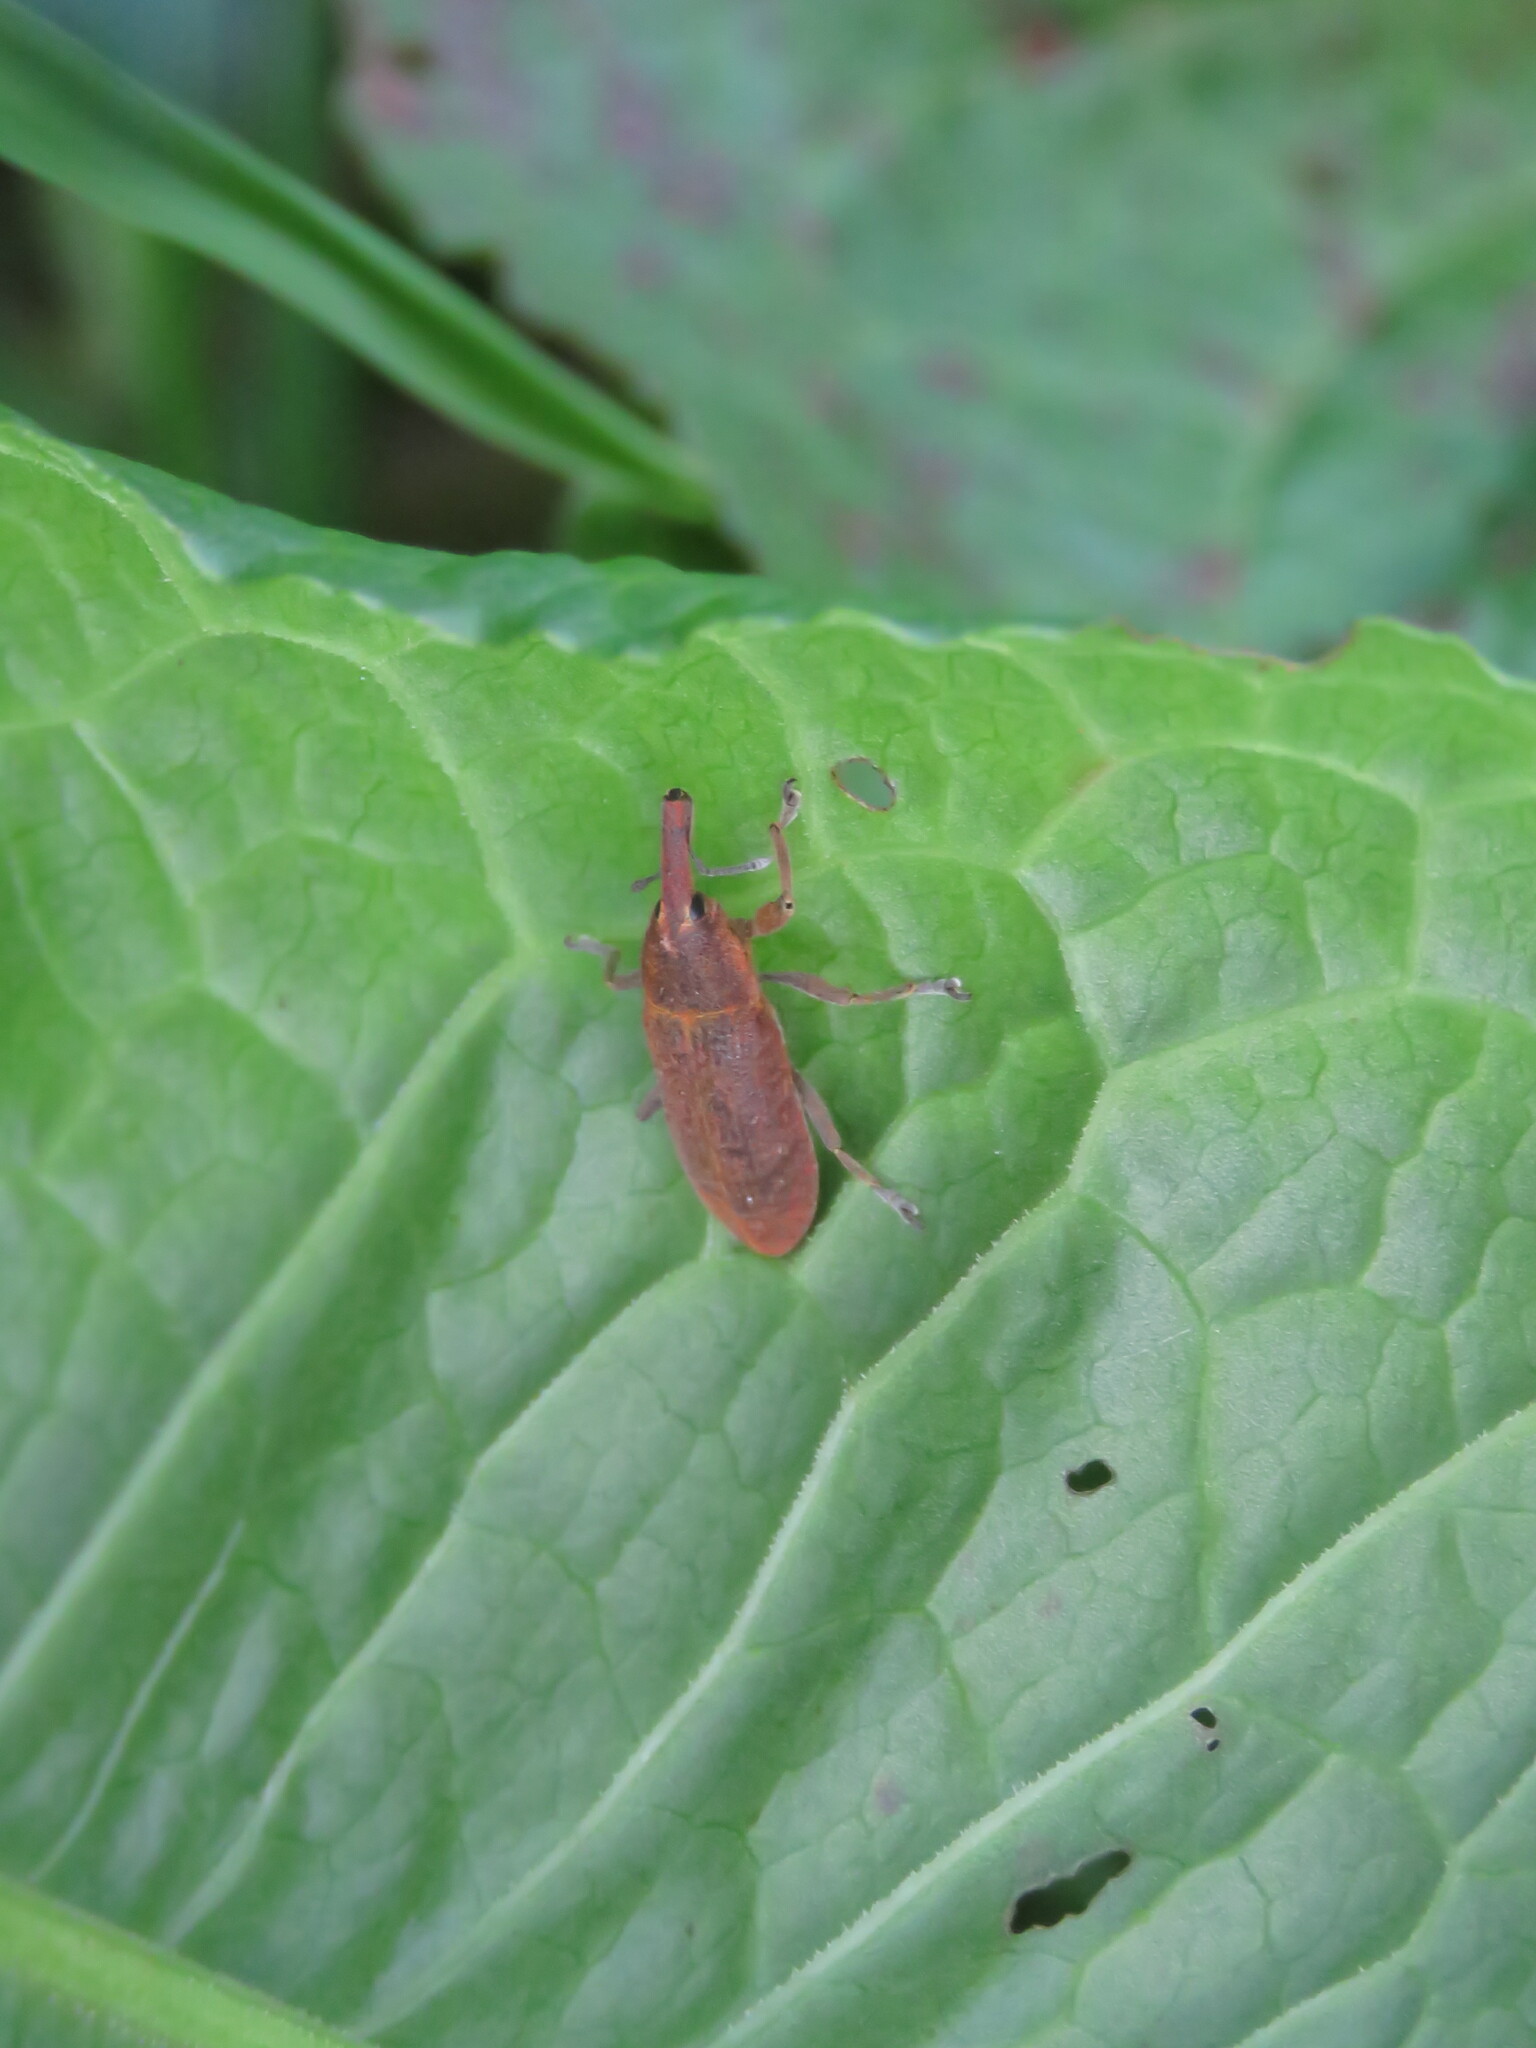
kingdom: Animalia
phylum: Arthropoda
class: Insecta
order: Coleoptera
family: Curculionidae
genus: Lixus
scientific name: Lixus linearis
